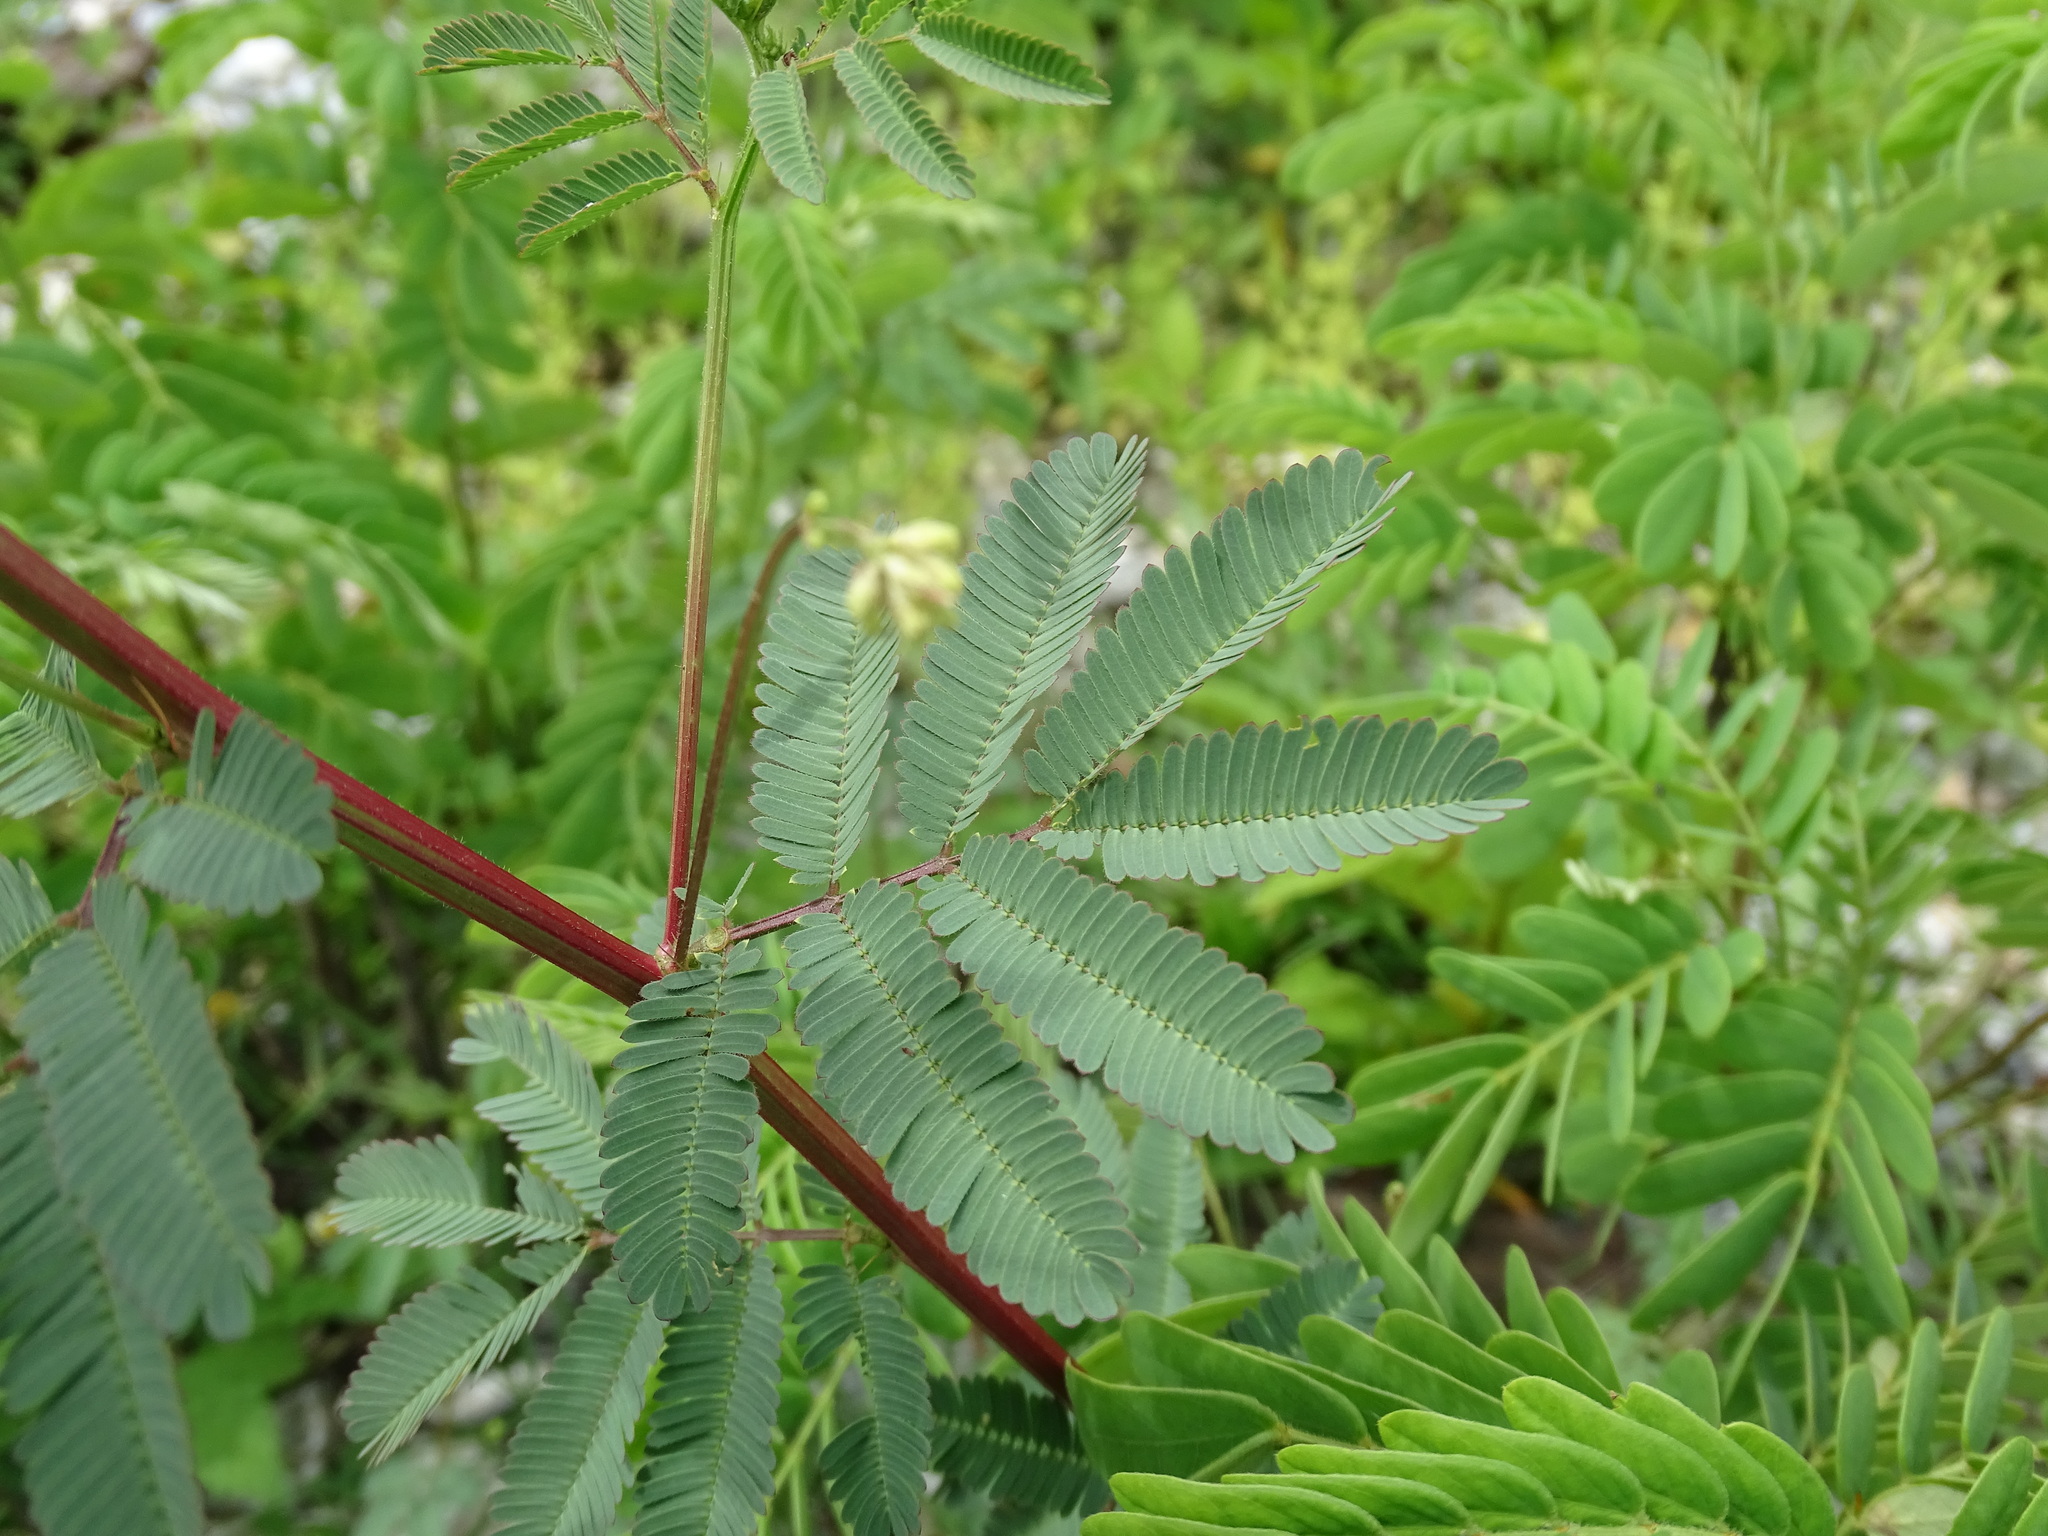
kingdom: Plantae
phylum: Tracheophyta
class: Magnoliopsida
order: Fabales
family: Fabaceae
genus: Desmanthus
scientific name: Desmanthus virgatus
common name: Wild tantan
